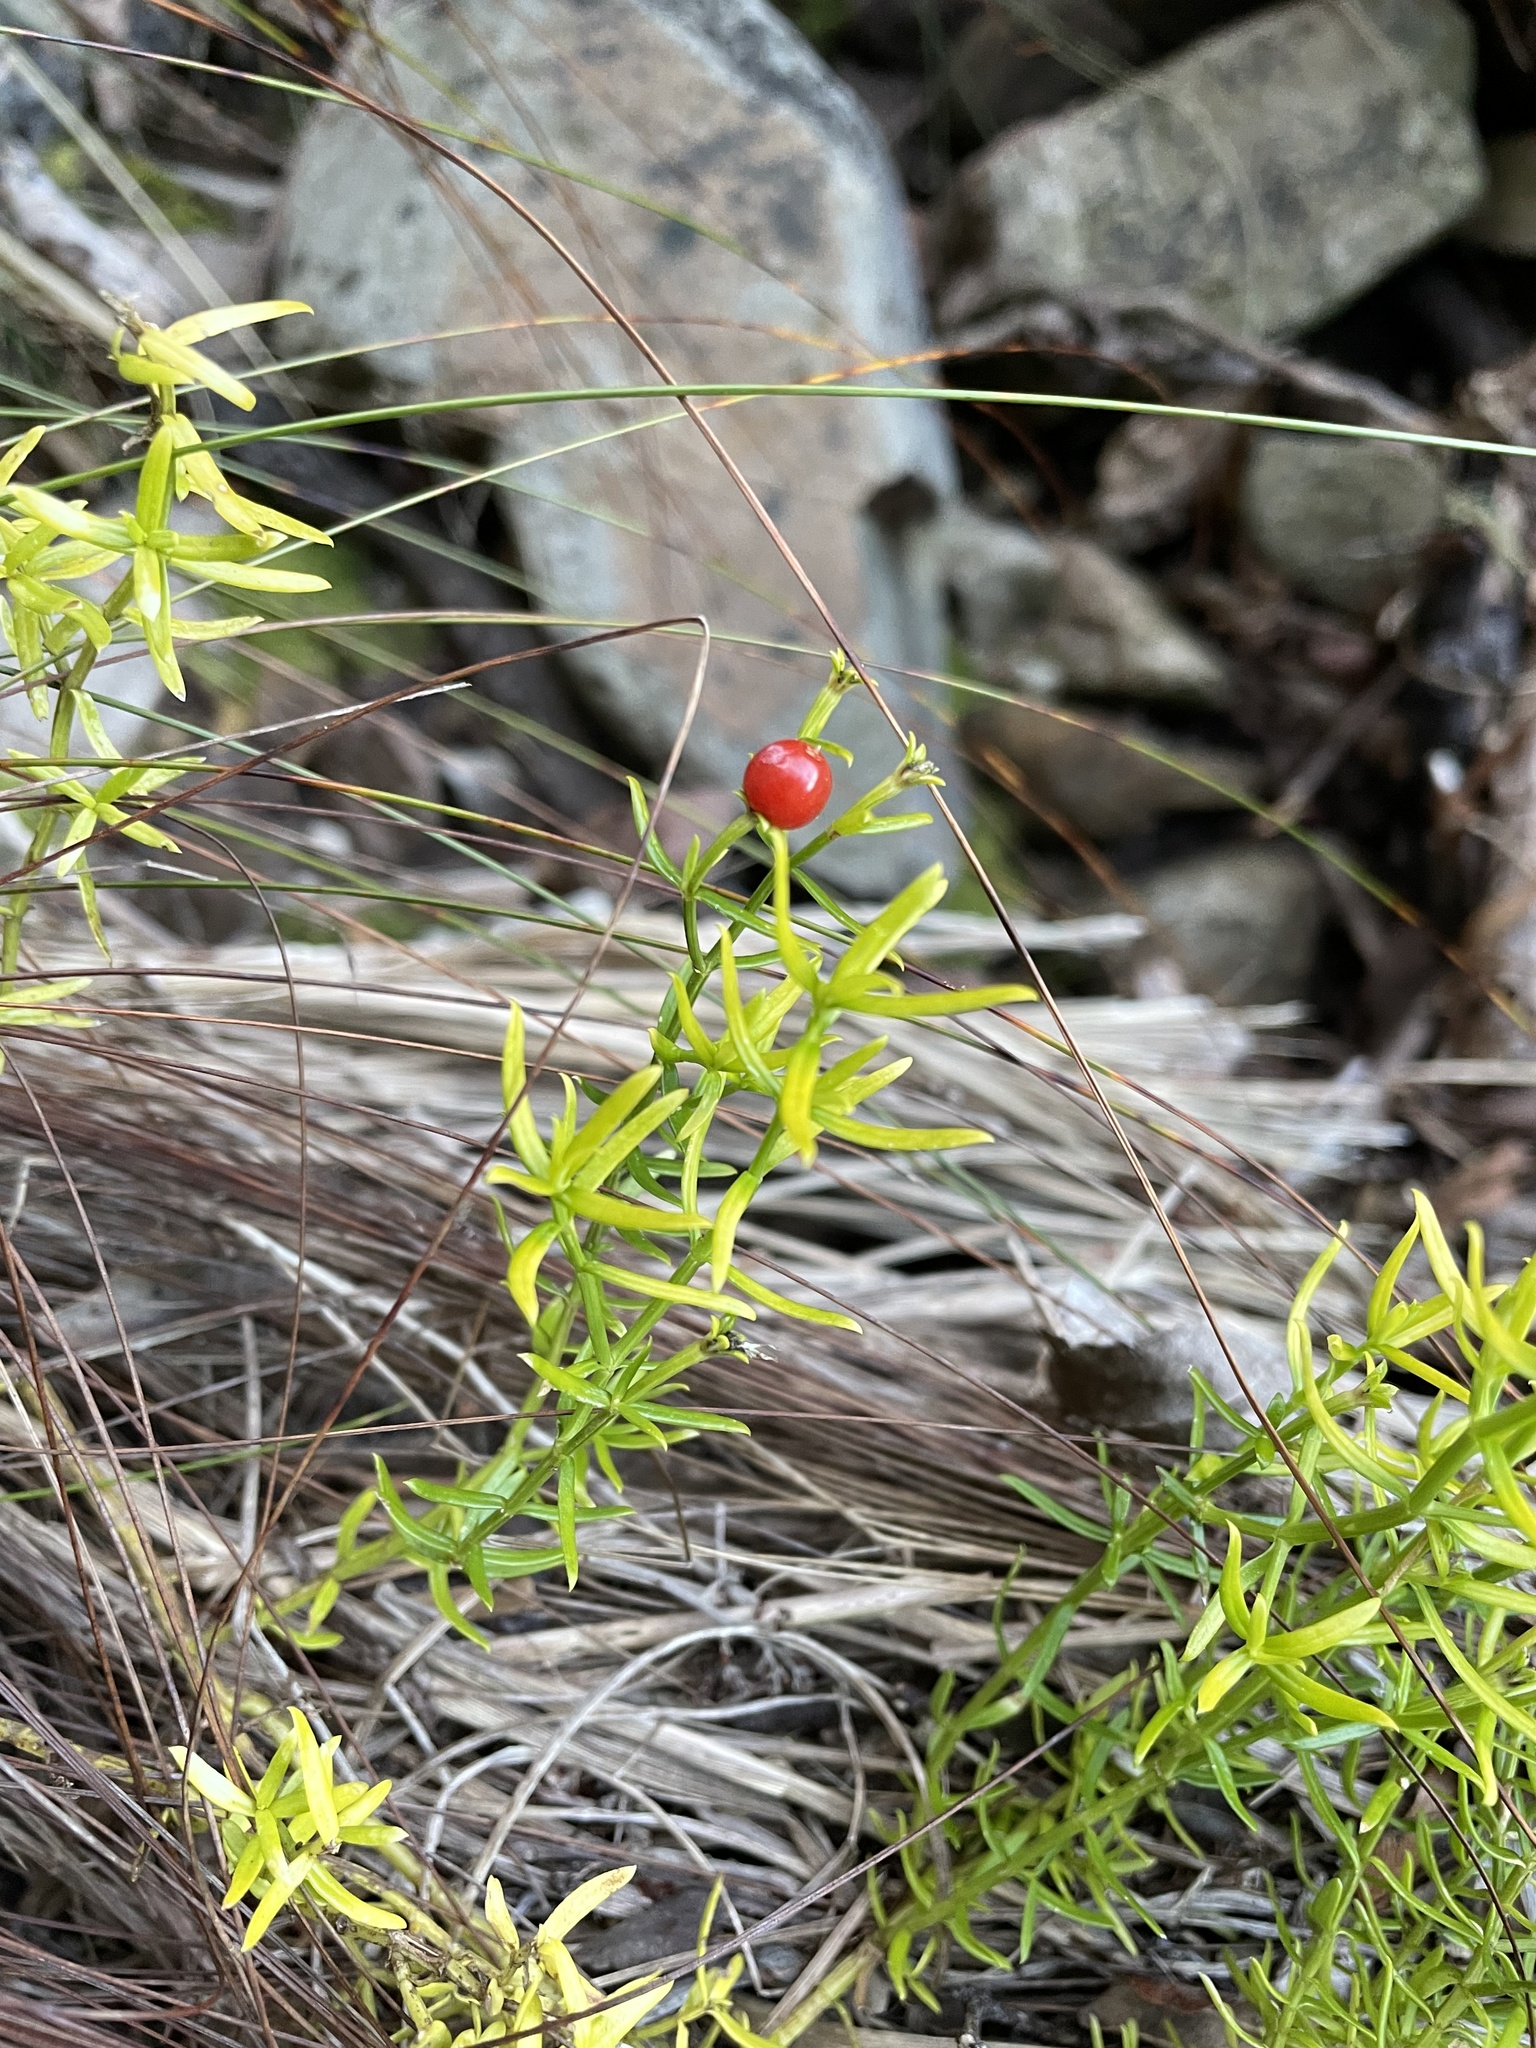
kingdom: Plantae
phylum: Tracheophyta
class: Magnoliopsida
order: Gentianales
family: Gentianaceae
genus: Chironia
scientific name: Chironia baccifera
